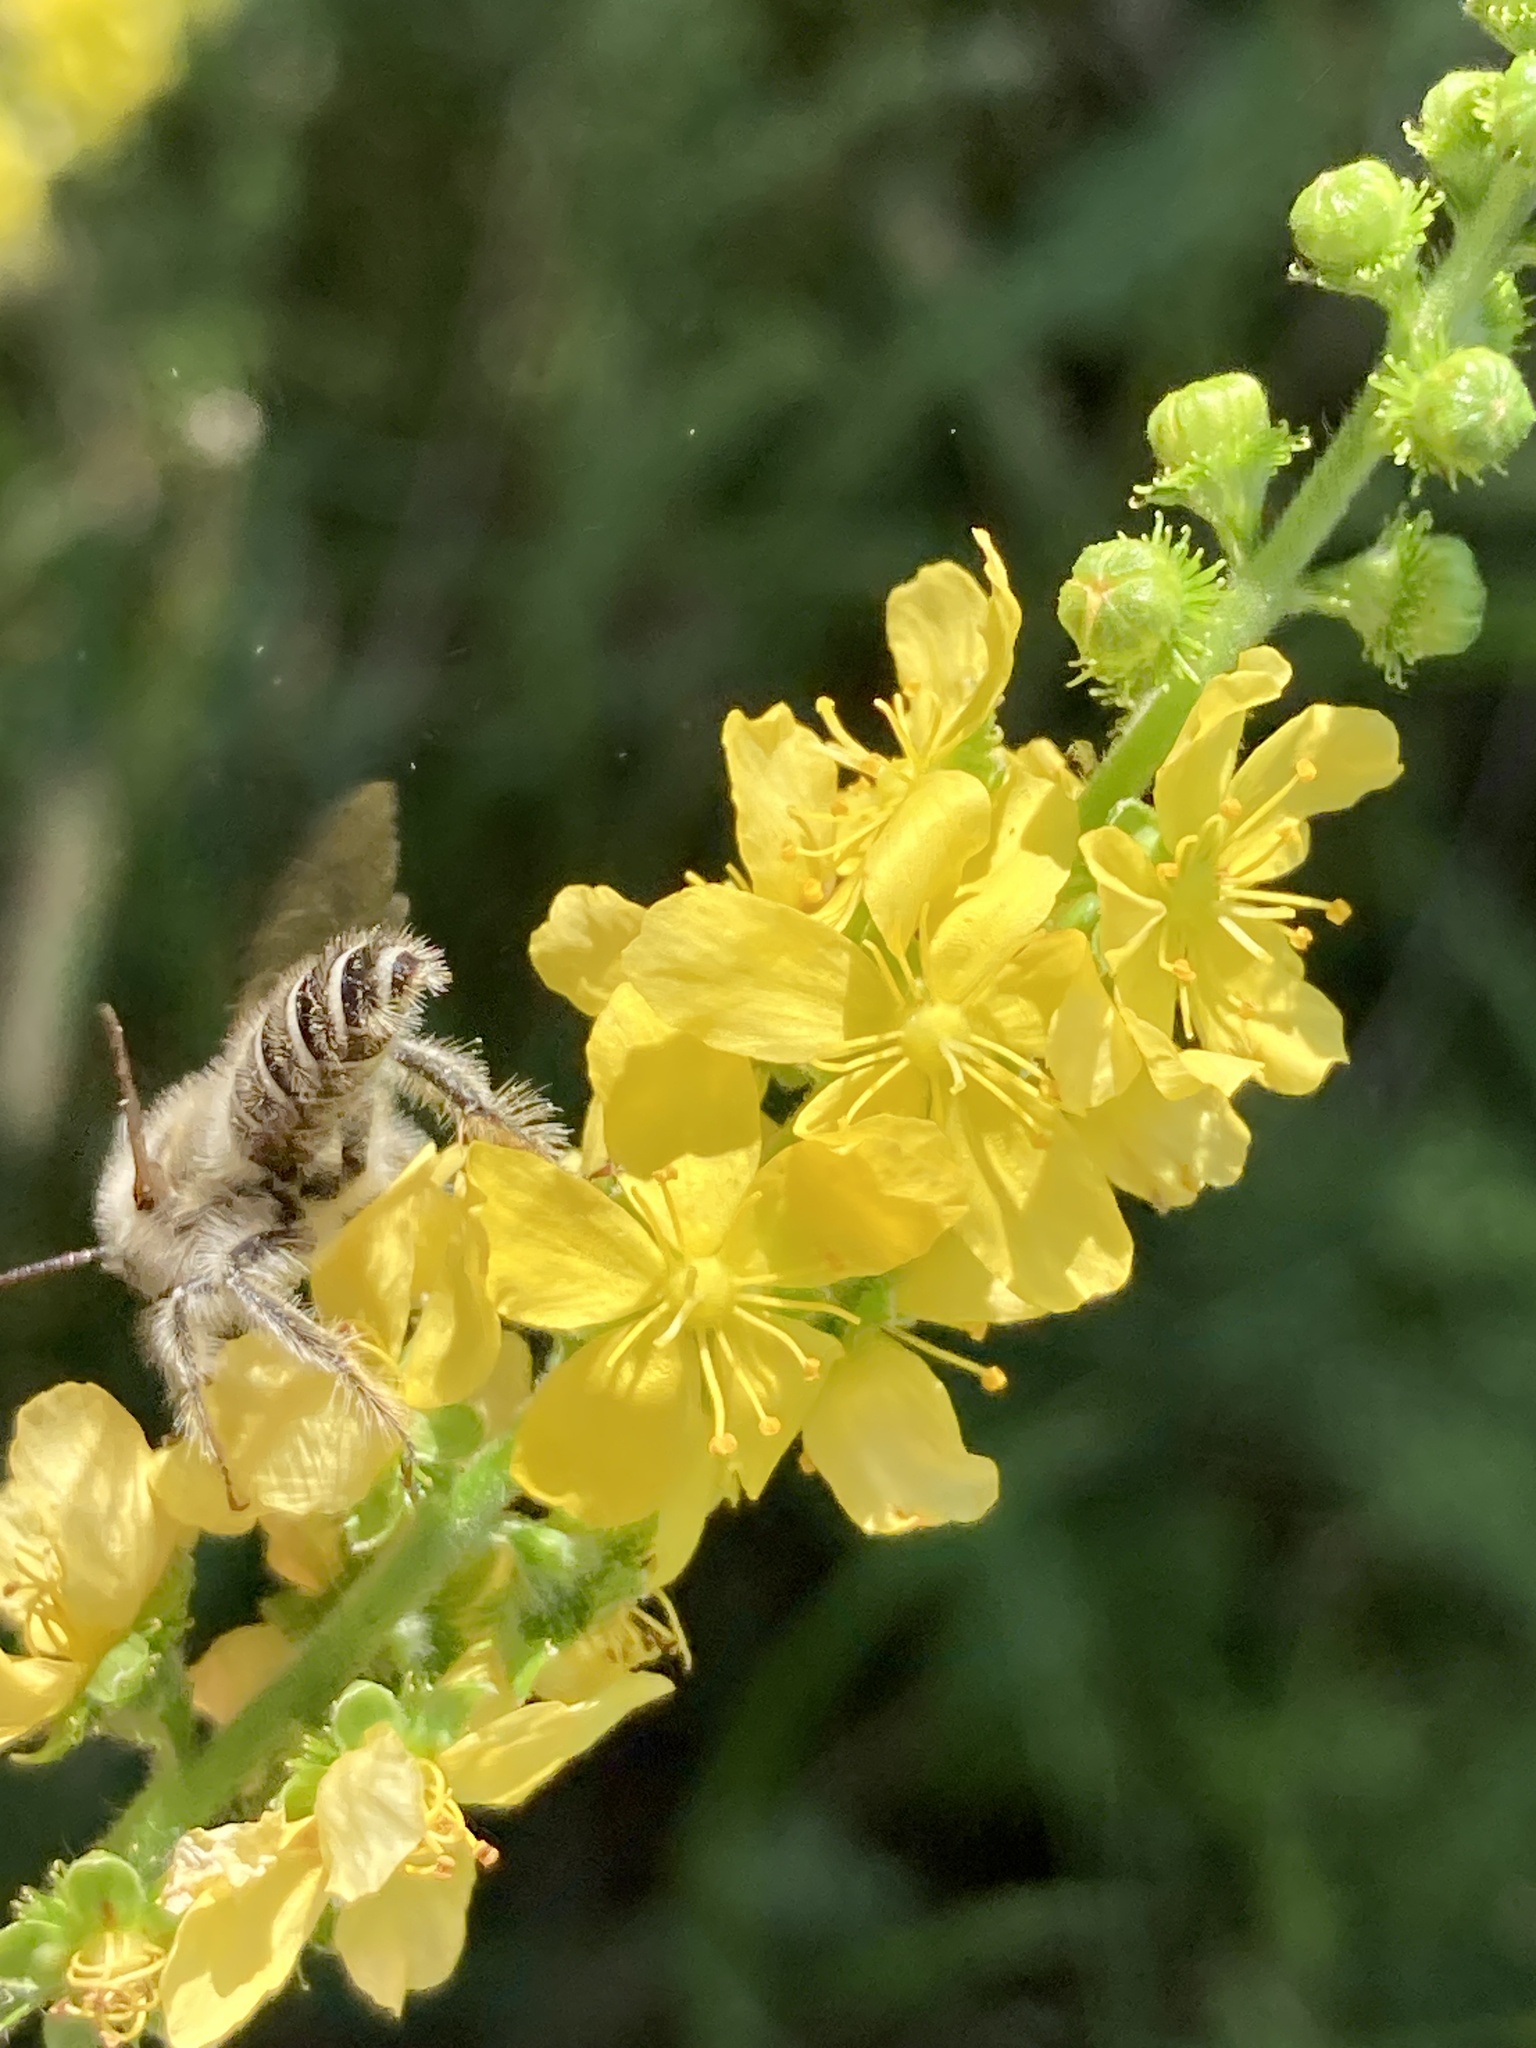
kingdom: Plantae
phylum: Tracheophyta
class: Magnoliopsida
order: Rosales
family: Rosaceae
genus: Agrimonia
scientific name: Agrimonia eupatoria
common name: Agrimony
